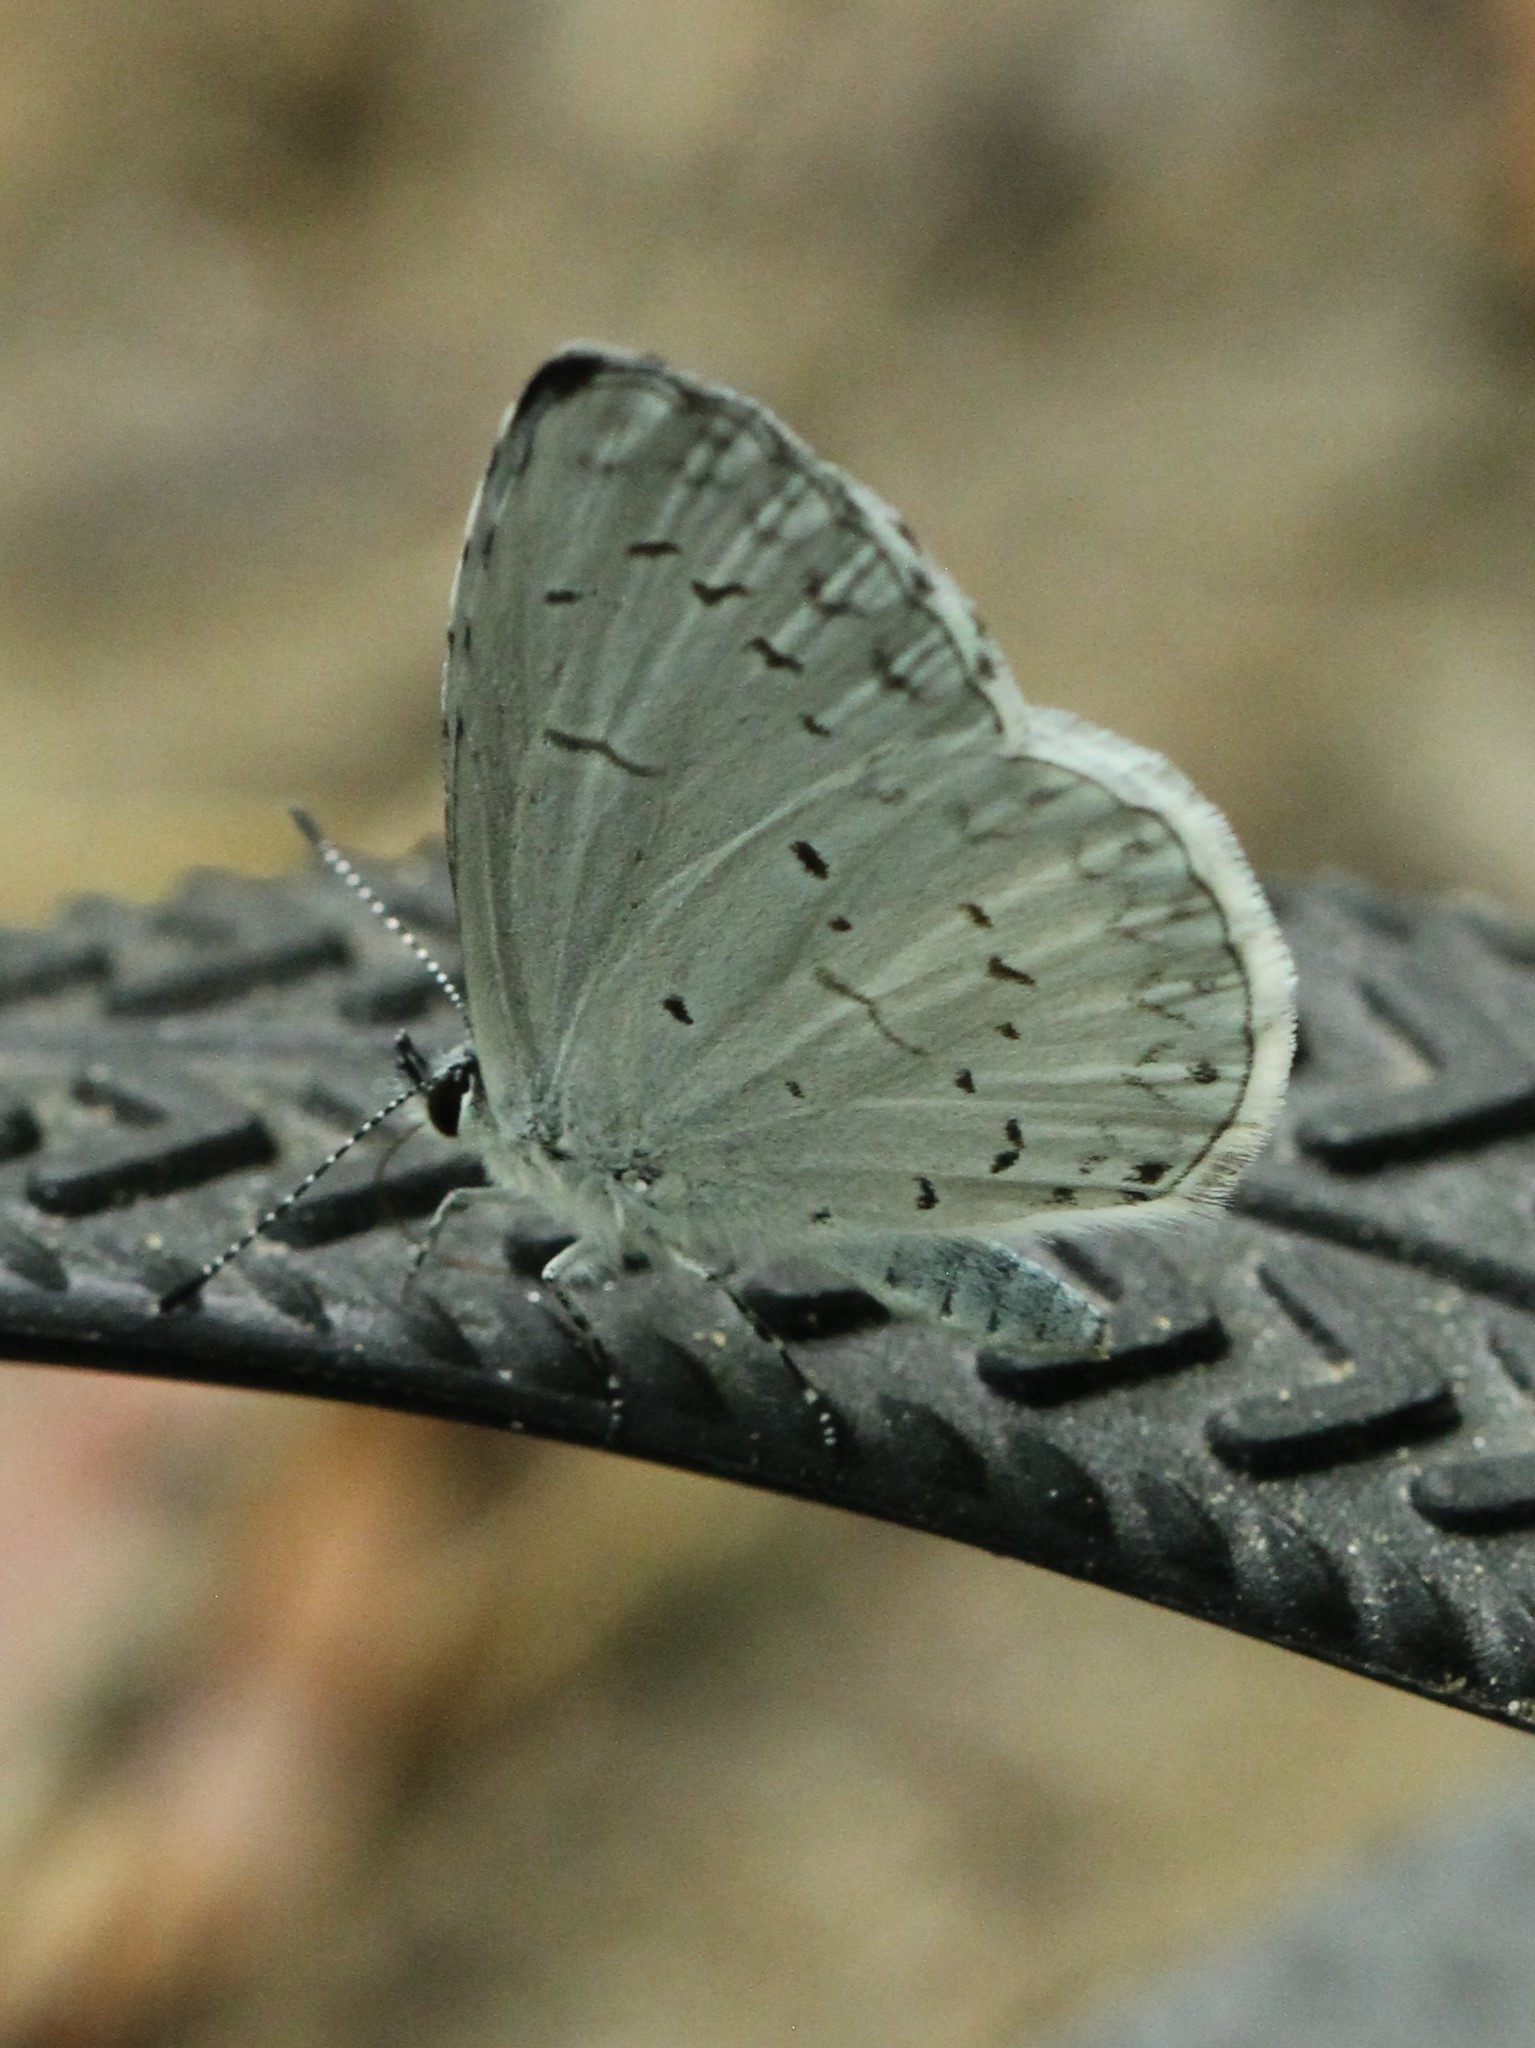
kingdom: Animalia
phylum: Arthropoda
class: Insecta
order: Lepidoptera
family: Lycaenidae
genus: Cyaniris
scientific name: Cyaniris neglecta
